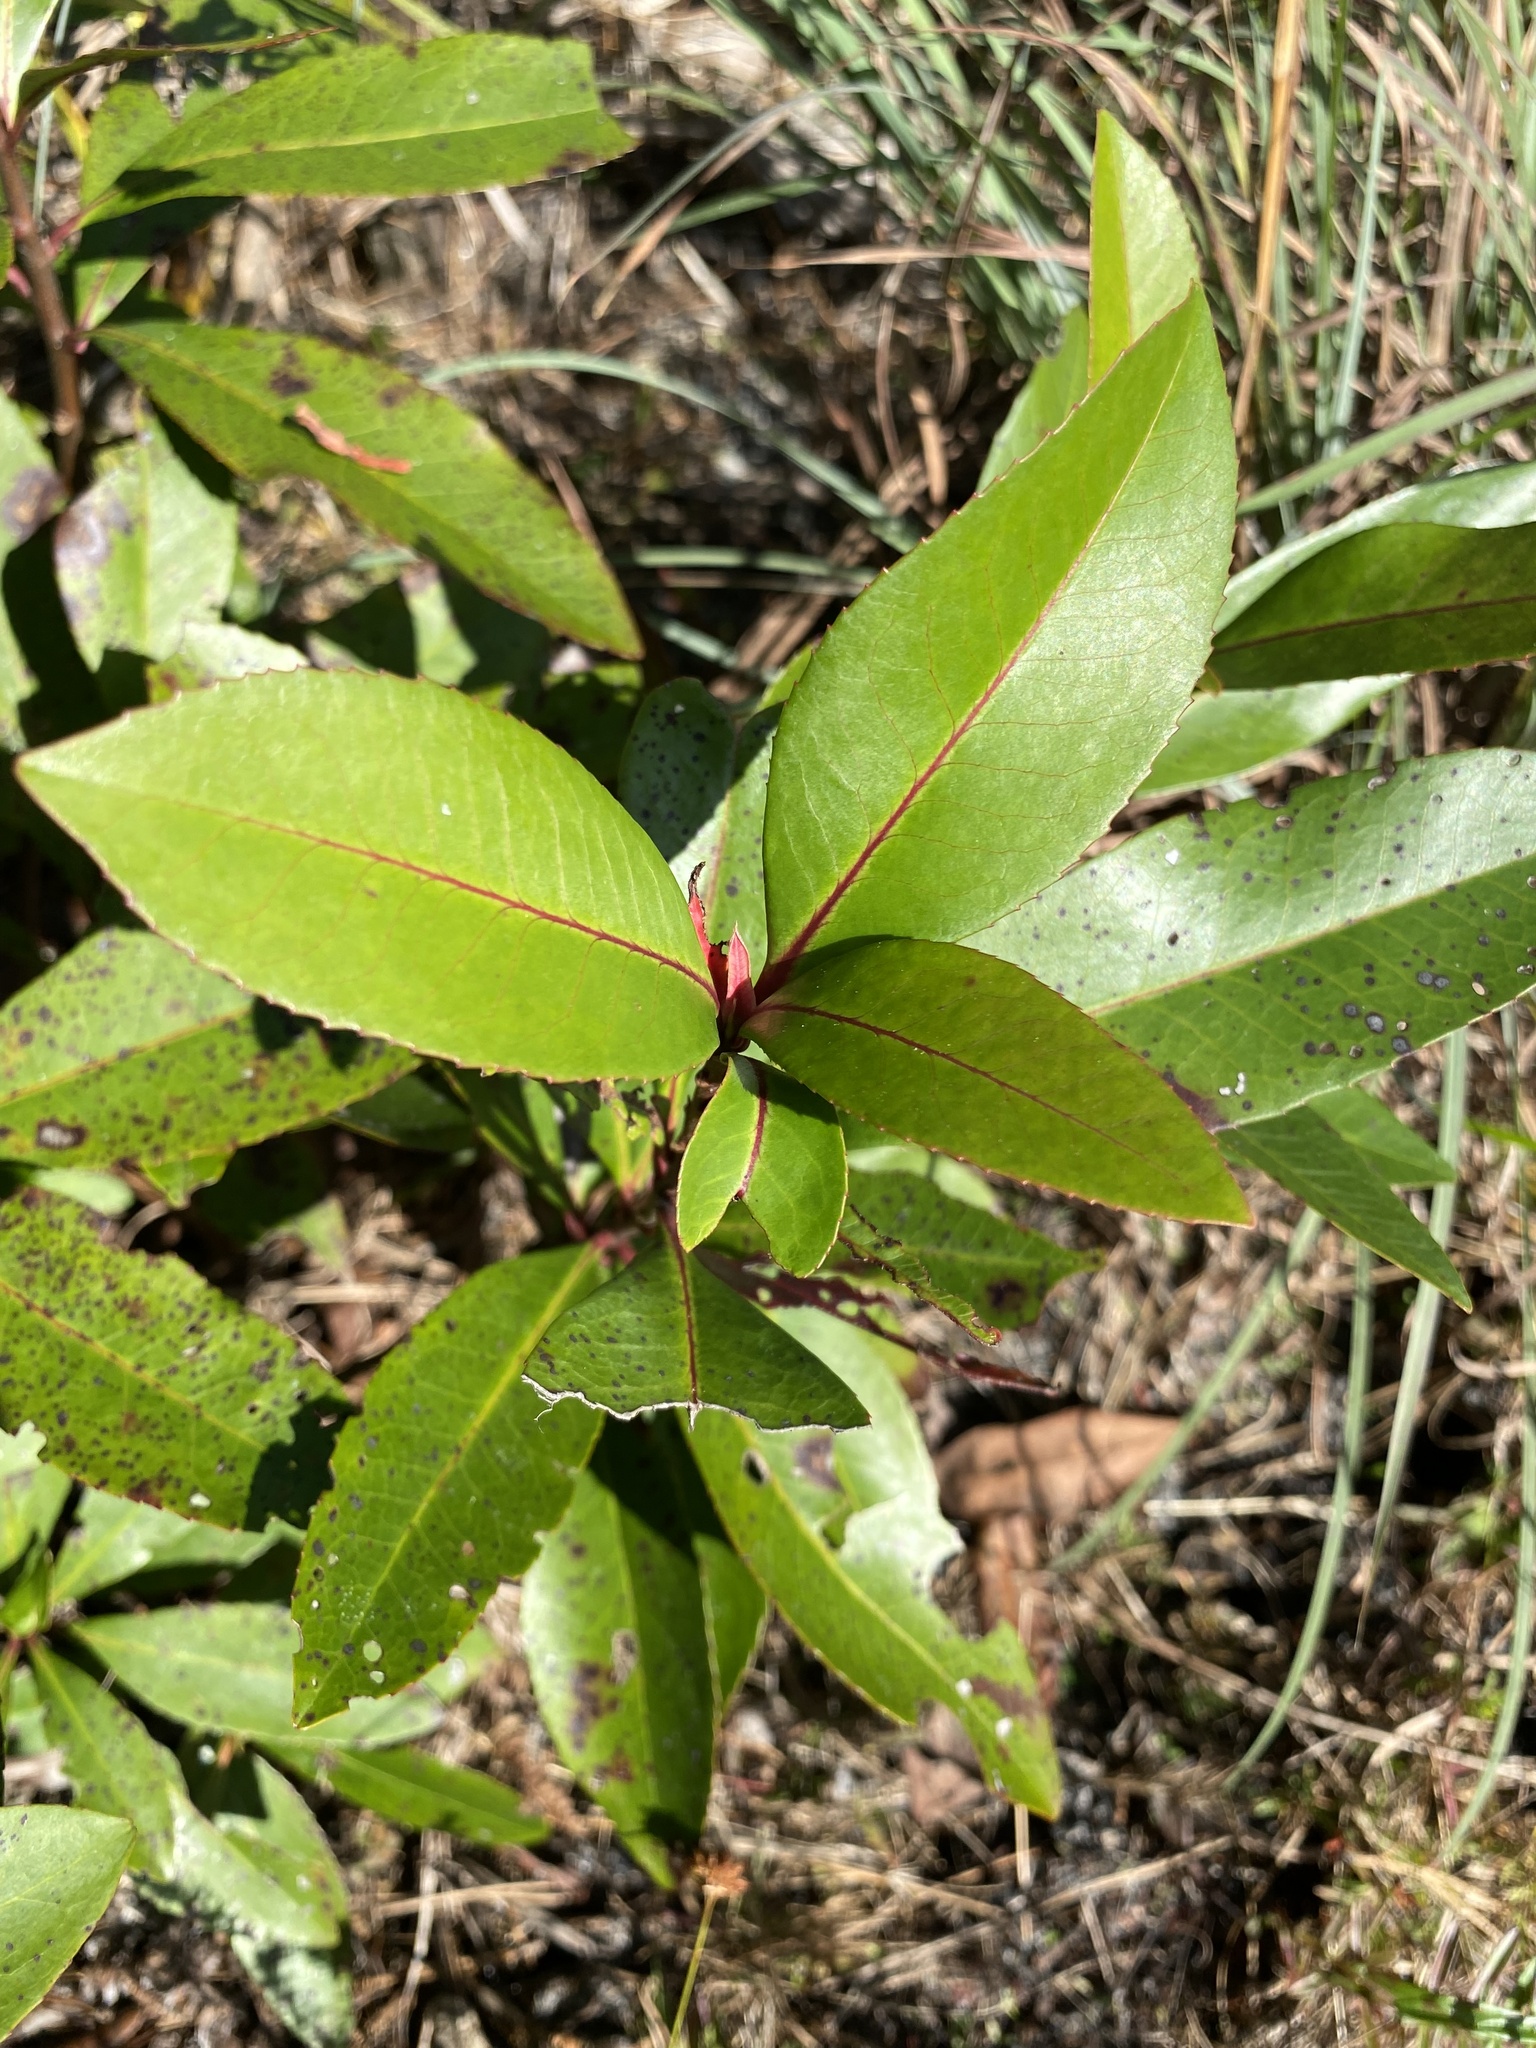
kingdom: Plantae
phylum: Tracheophyta
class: Magnoliopsida
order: Ericales
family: Theaceae
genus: Gordonia
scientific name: Gordonia lasianthus
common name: Loblolly bay
